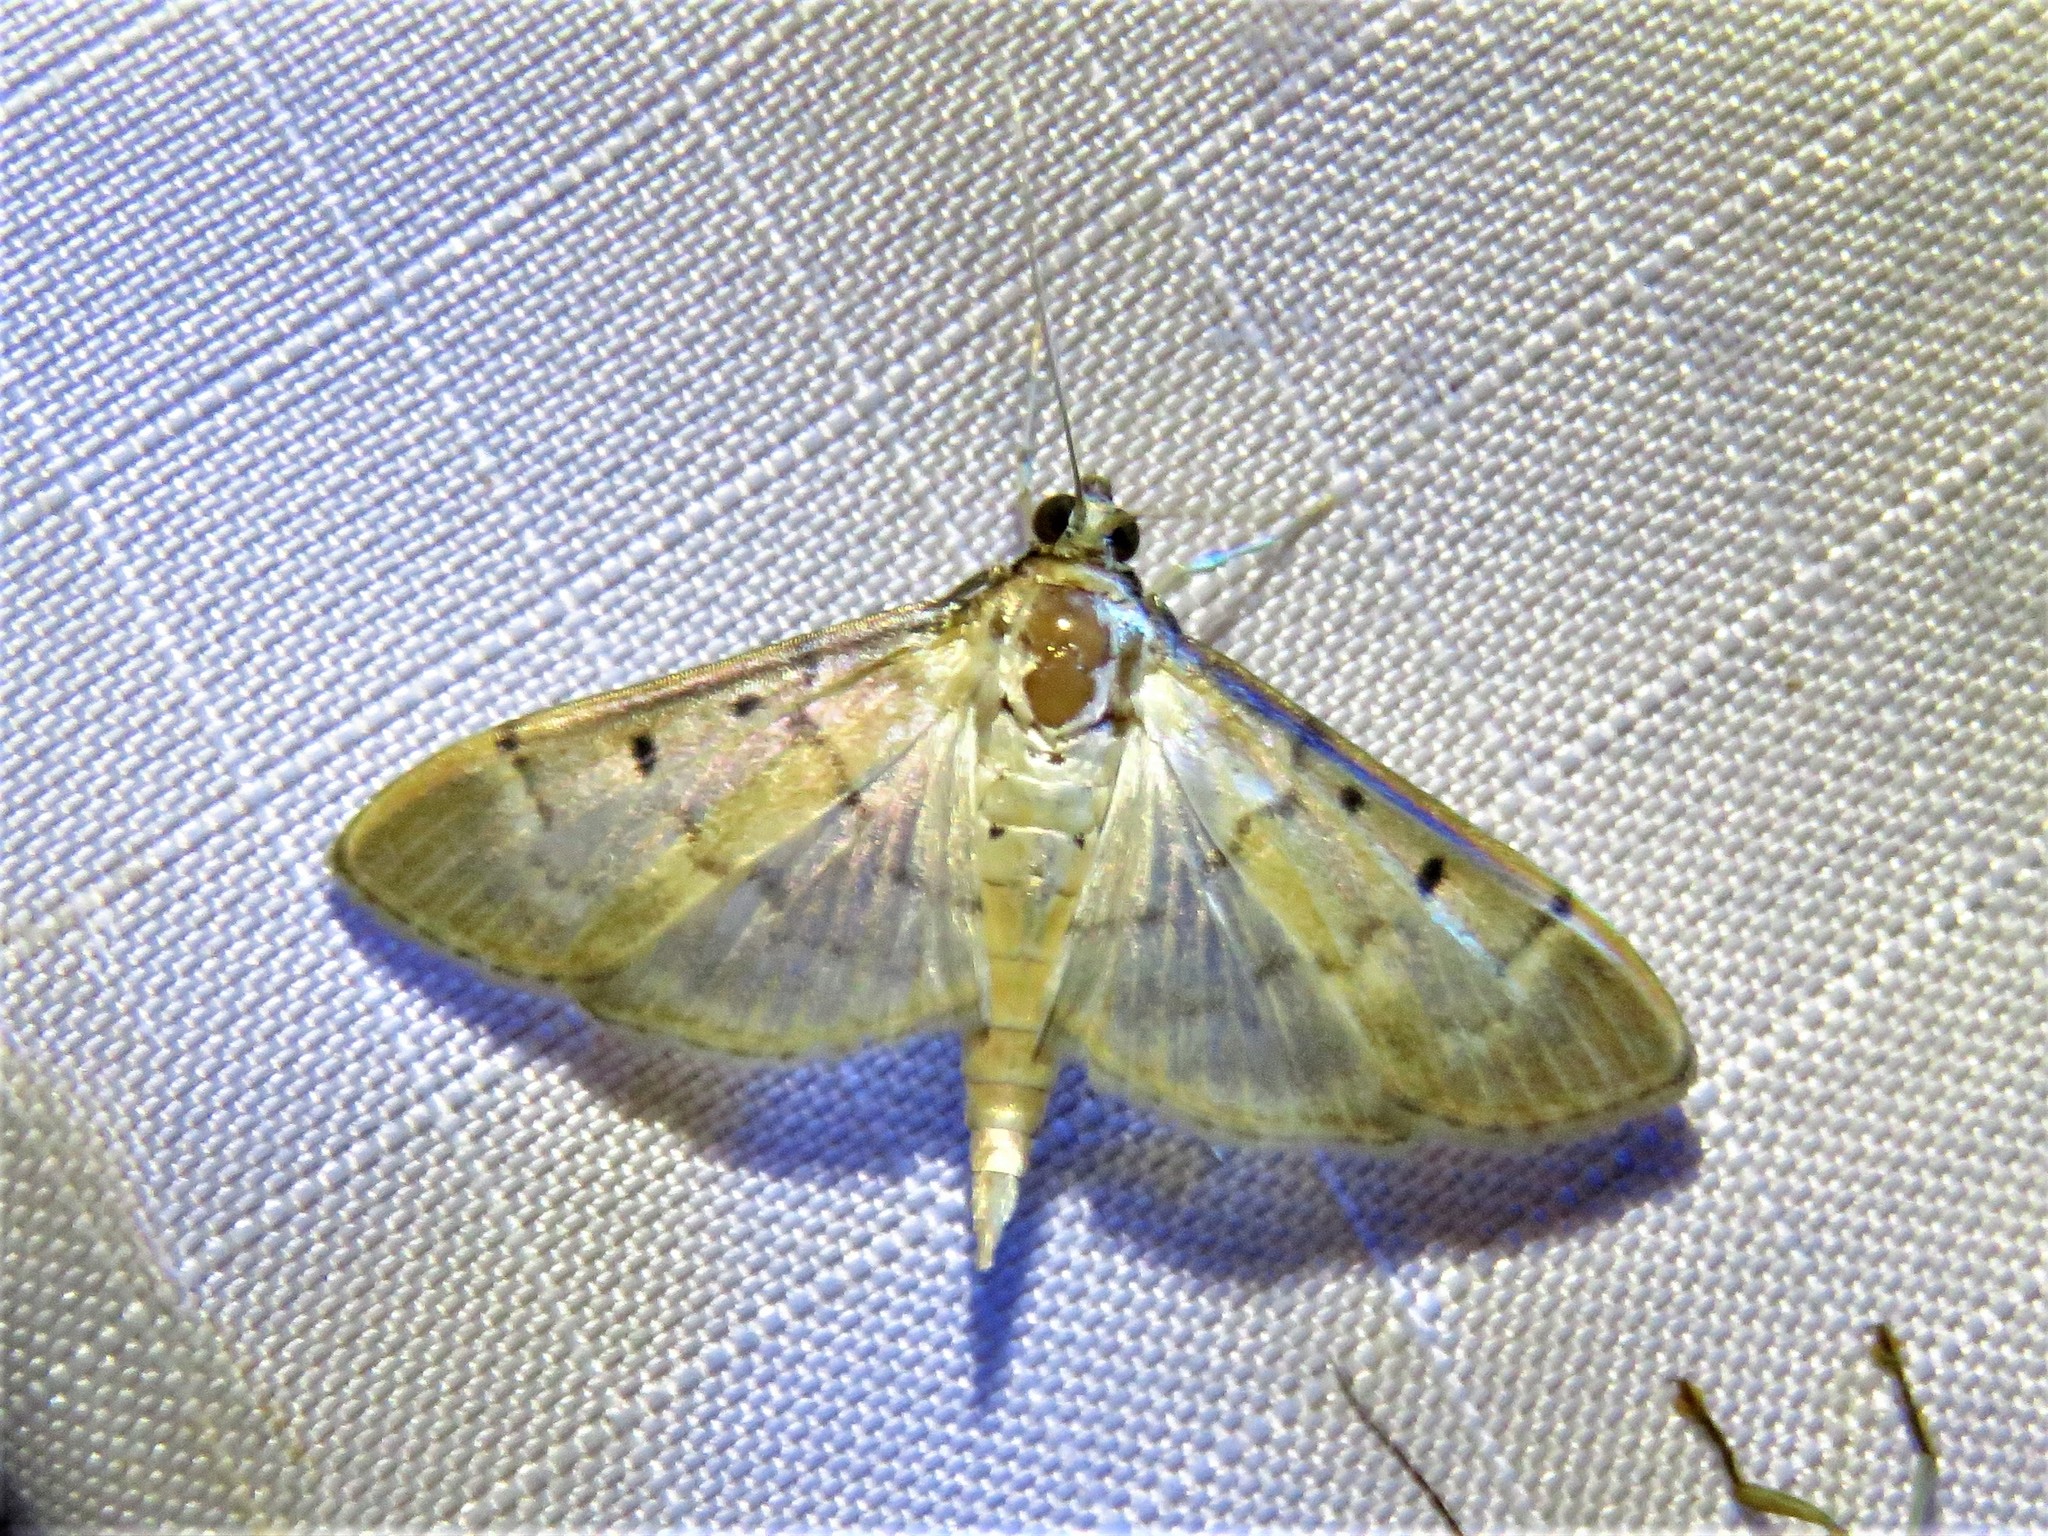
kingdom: Animalia
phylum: Arthropoda
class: Insecta
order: Lepidoptera
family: Crambidae
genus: Herpetogramma
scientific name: Herpetogramma bipunctalis
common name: Southern beet webworm
